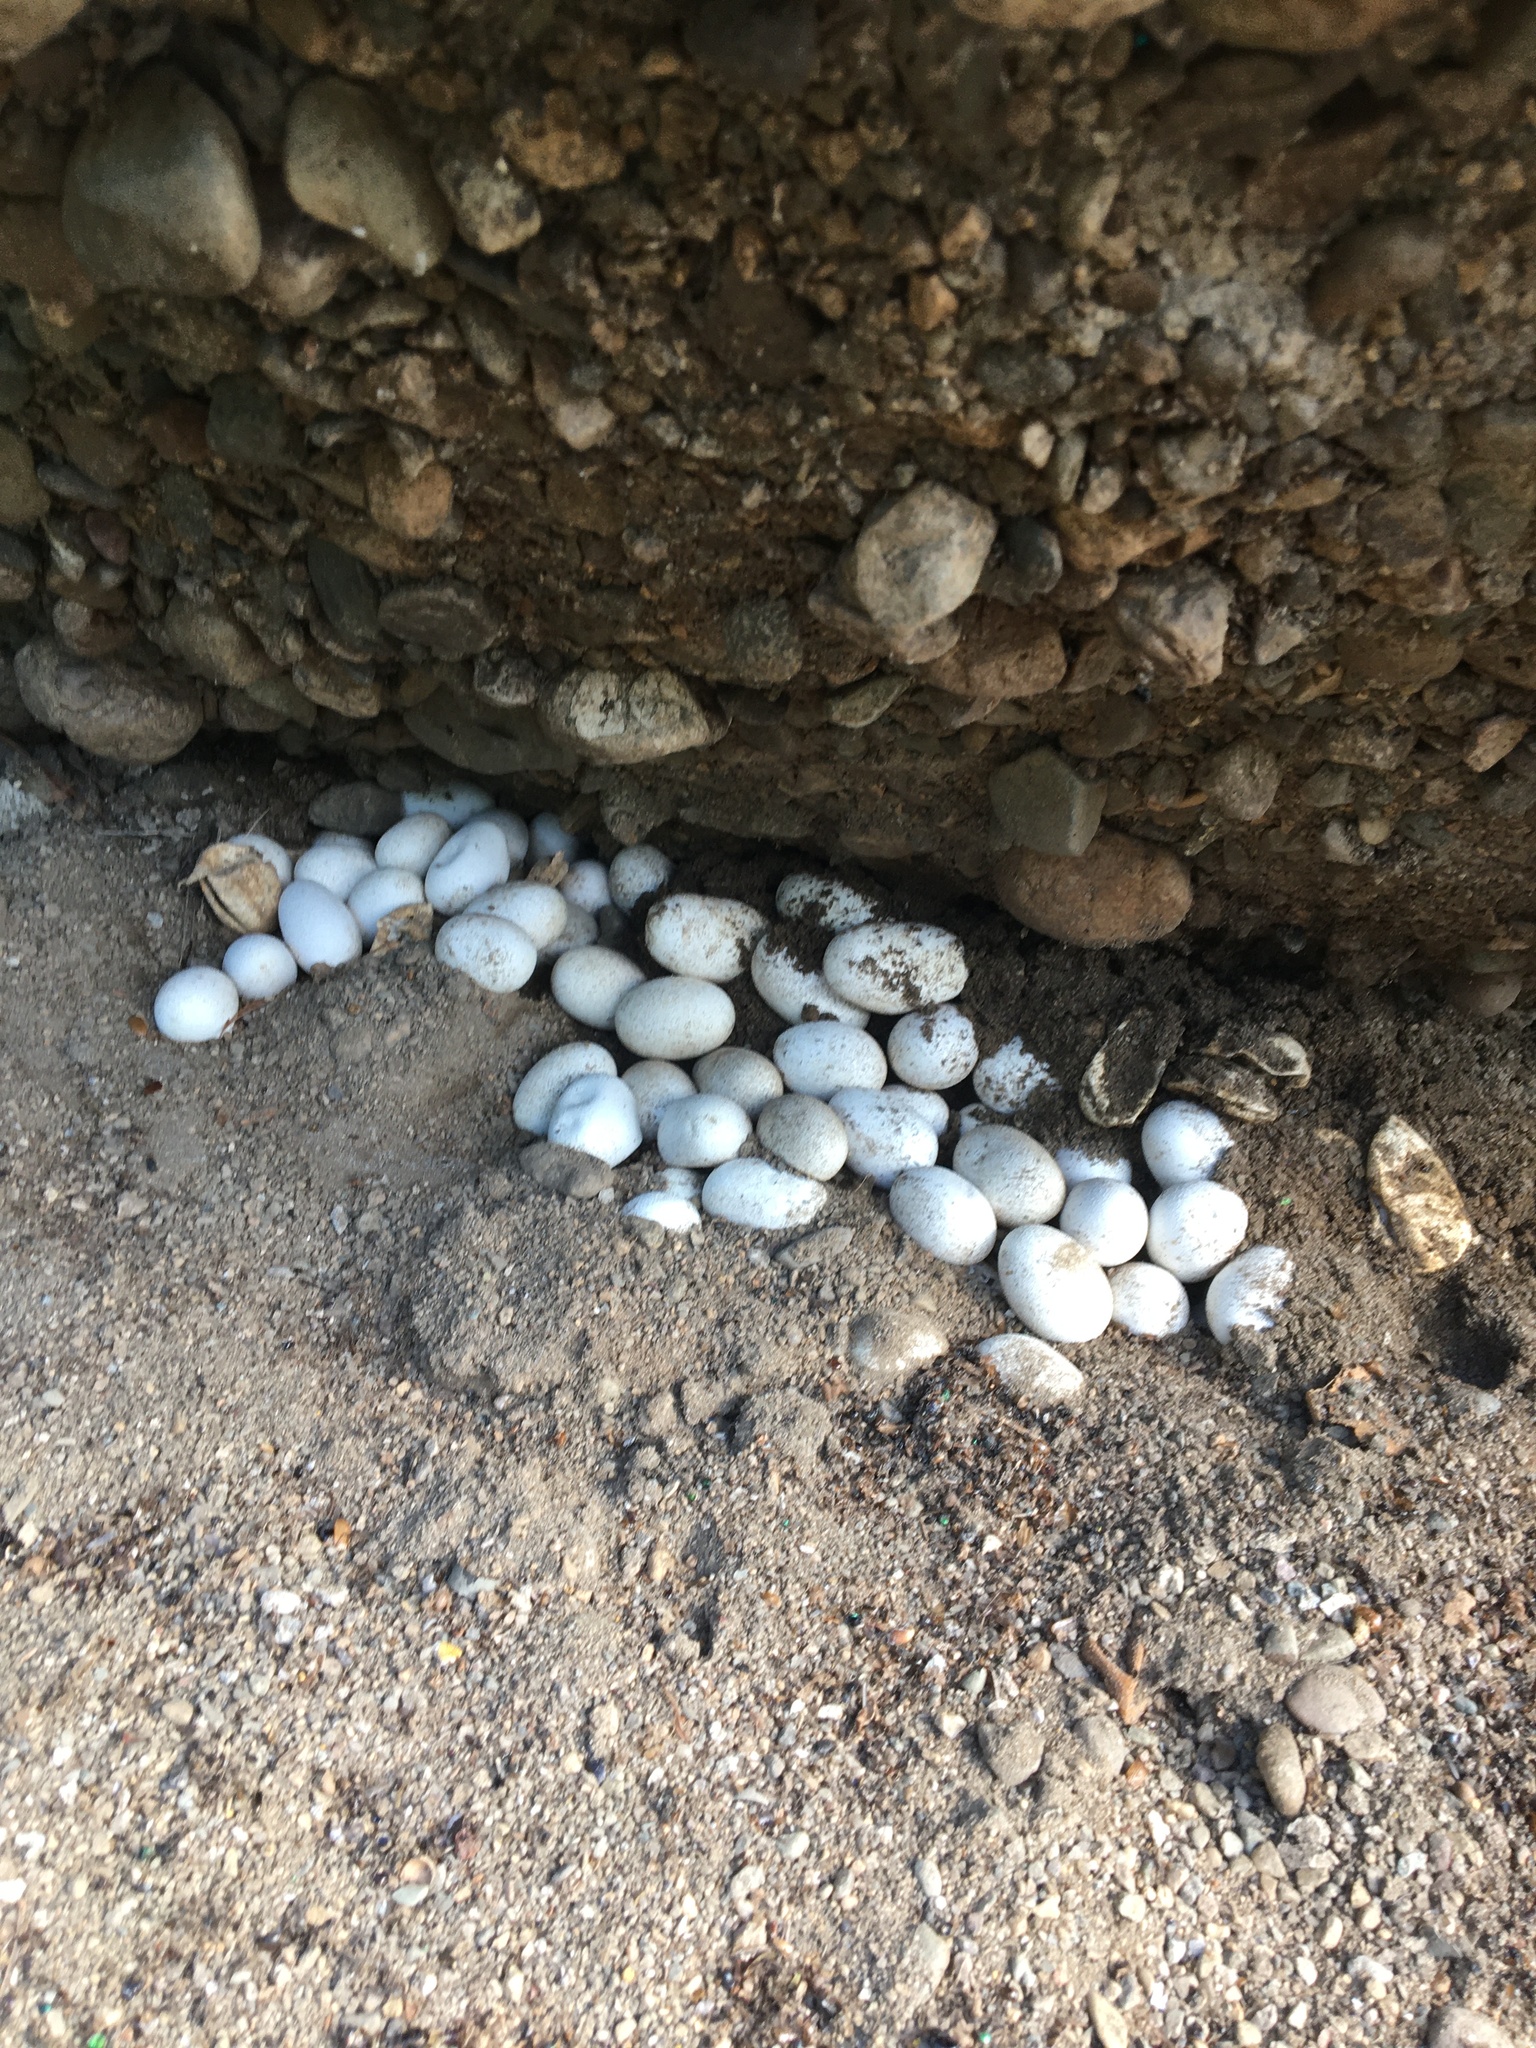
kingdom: Animalia
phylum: Chordata
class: Squamata
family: Colubridae
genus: Coluber
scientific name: Coluber constrictor
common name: Eastern racer
